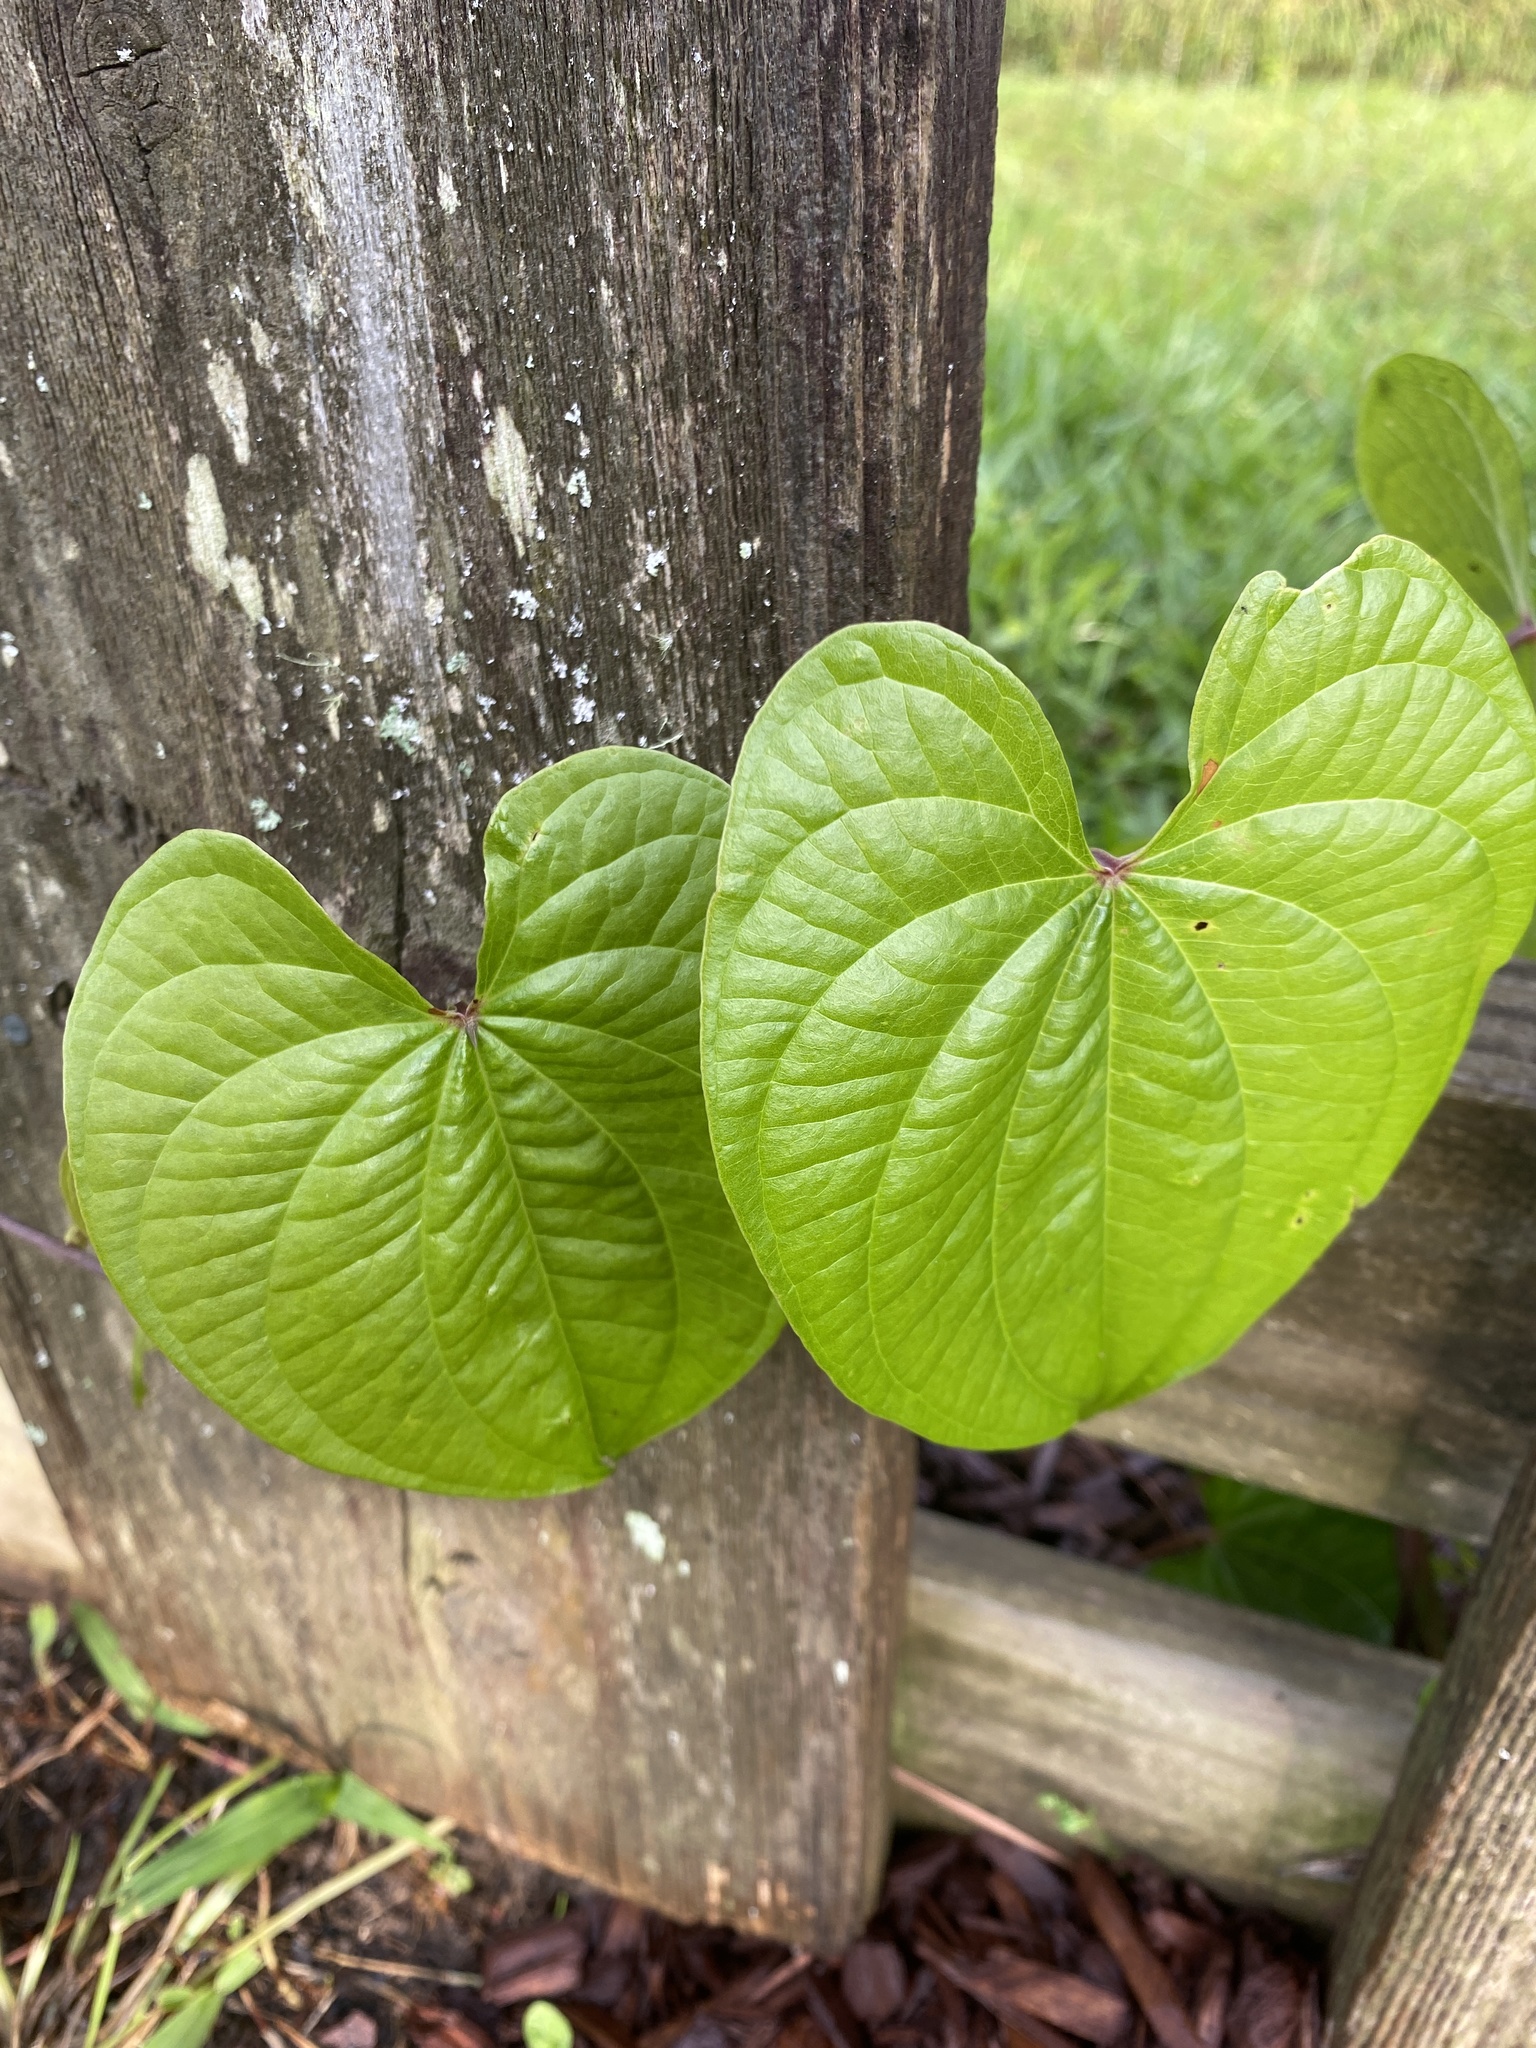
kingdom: Plantae
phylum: Tracheophyta
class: Liliopsida
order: Dioscoreales
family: Dioscoreaceae
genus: Dioscorea
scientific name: Dioscorea bulbifera
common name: Air yam
